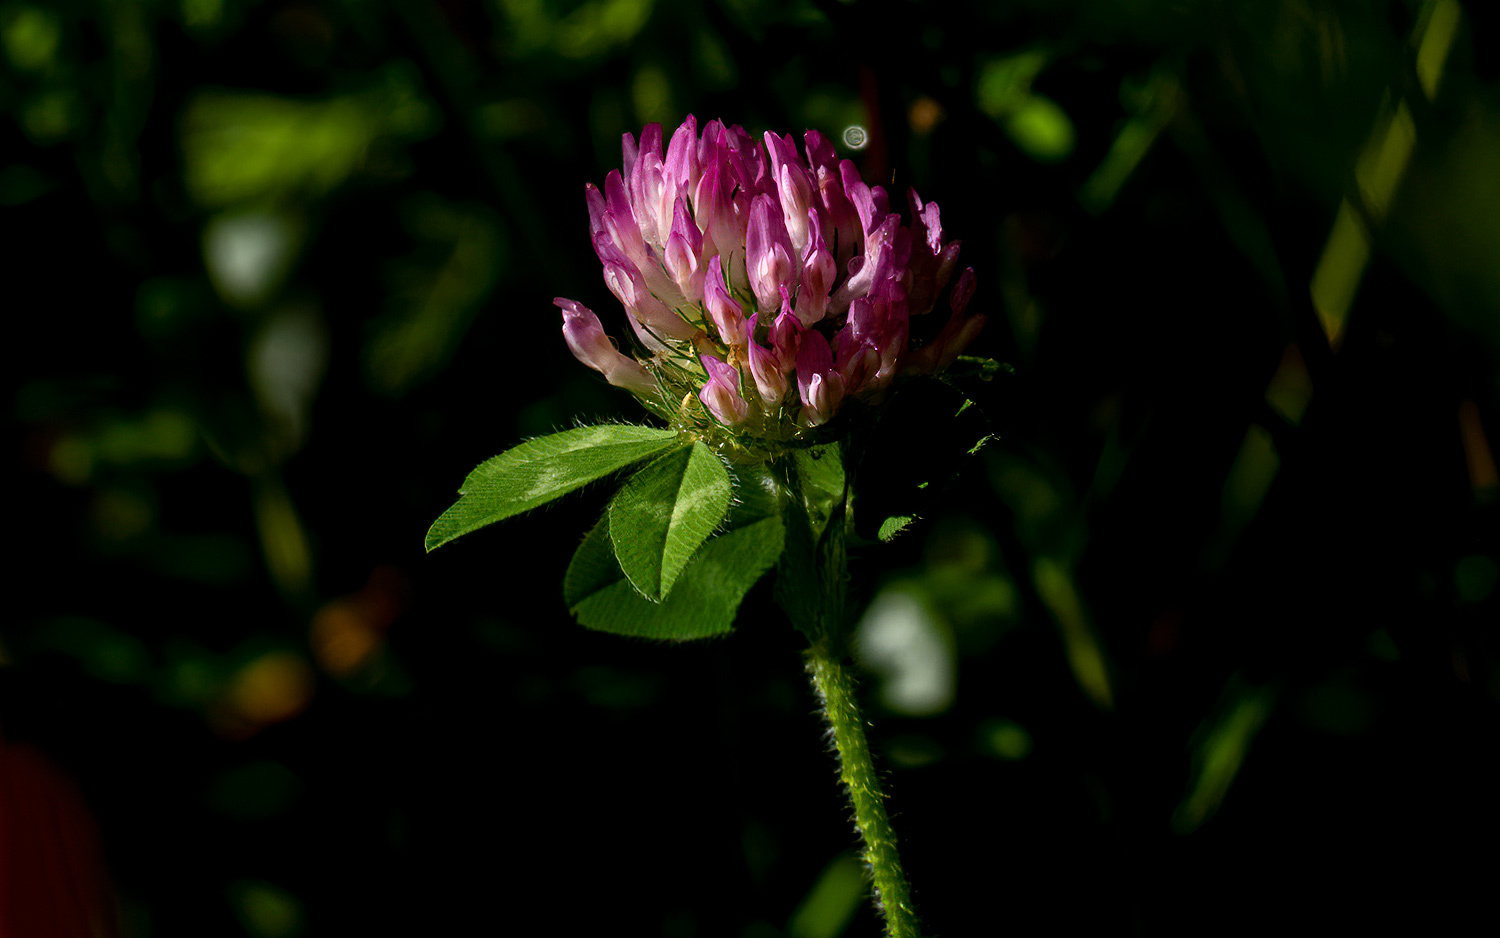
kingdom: Plantae
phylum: Tracheophyta
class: Magnoliopsida
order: Fabales
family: Fabaceae
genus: Trifolium
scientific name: Trifolium pratense
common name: Red clover
